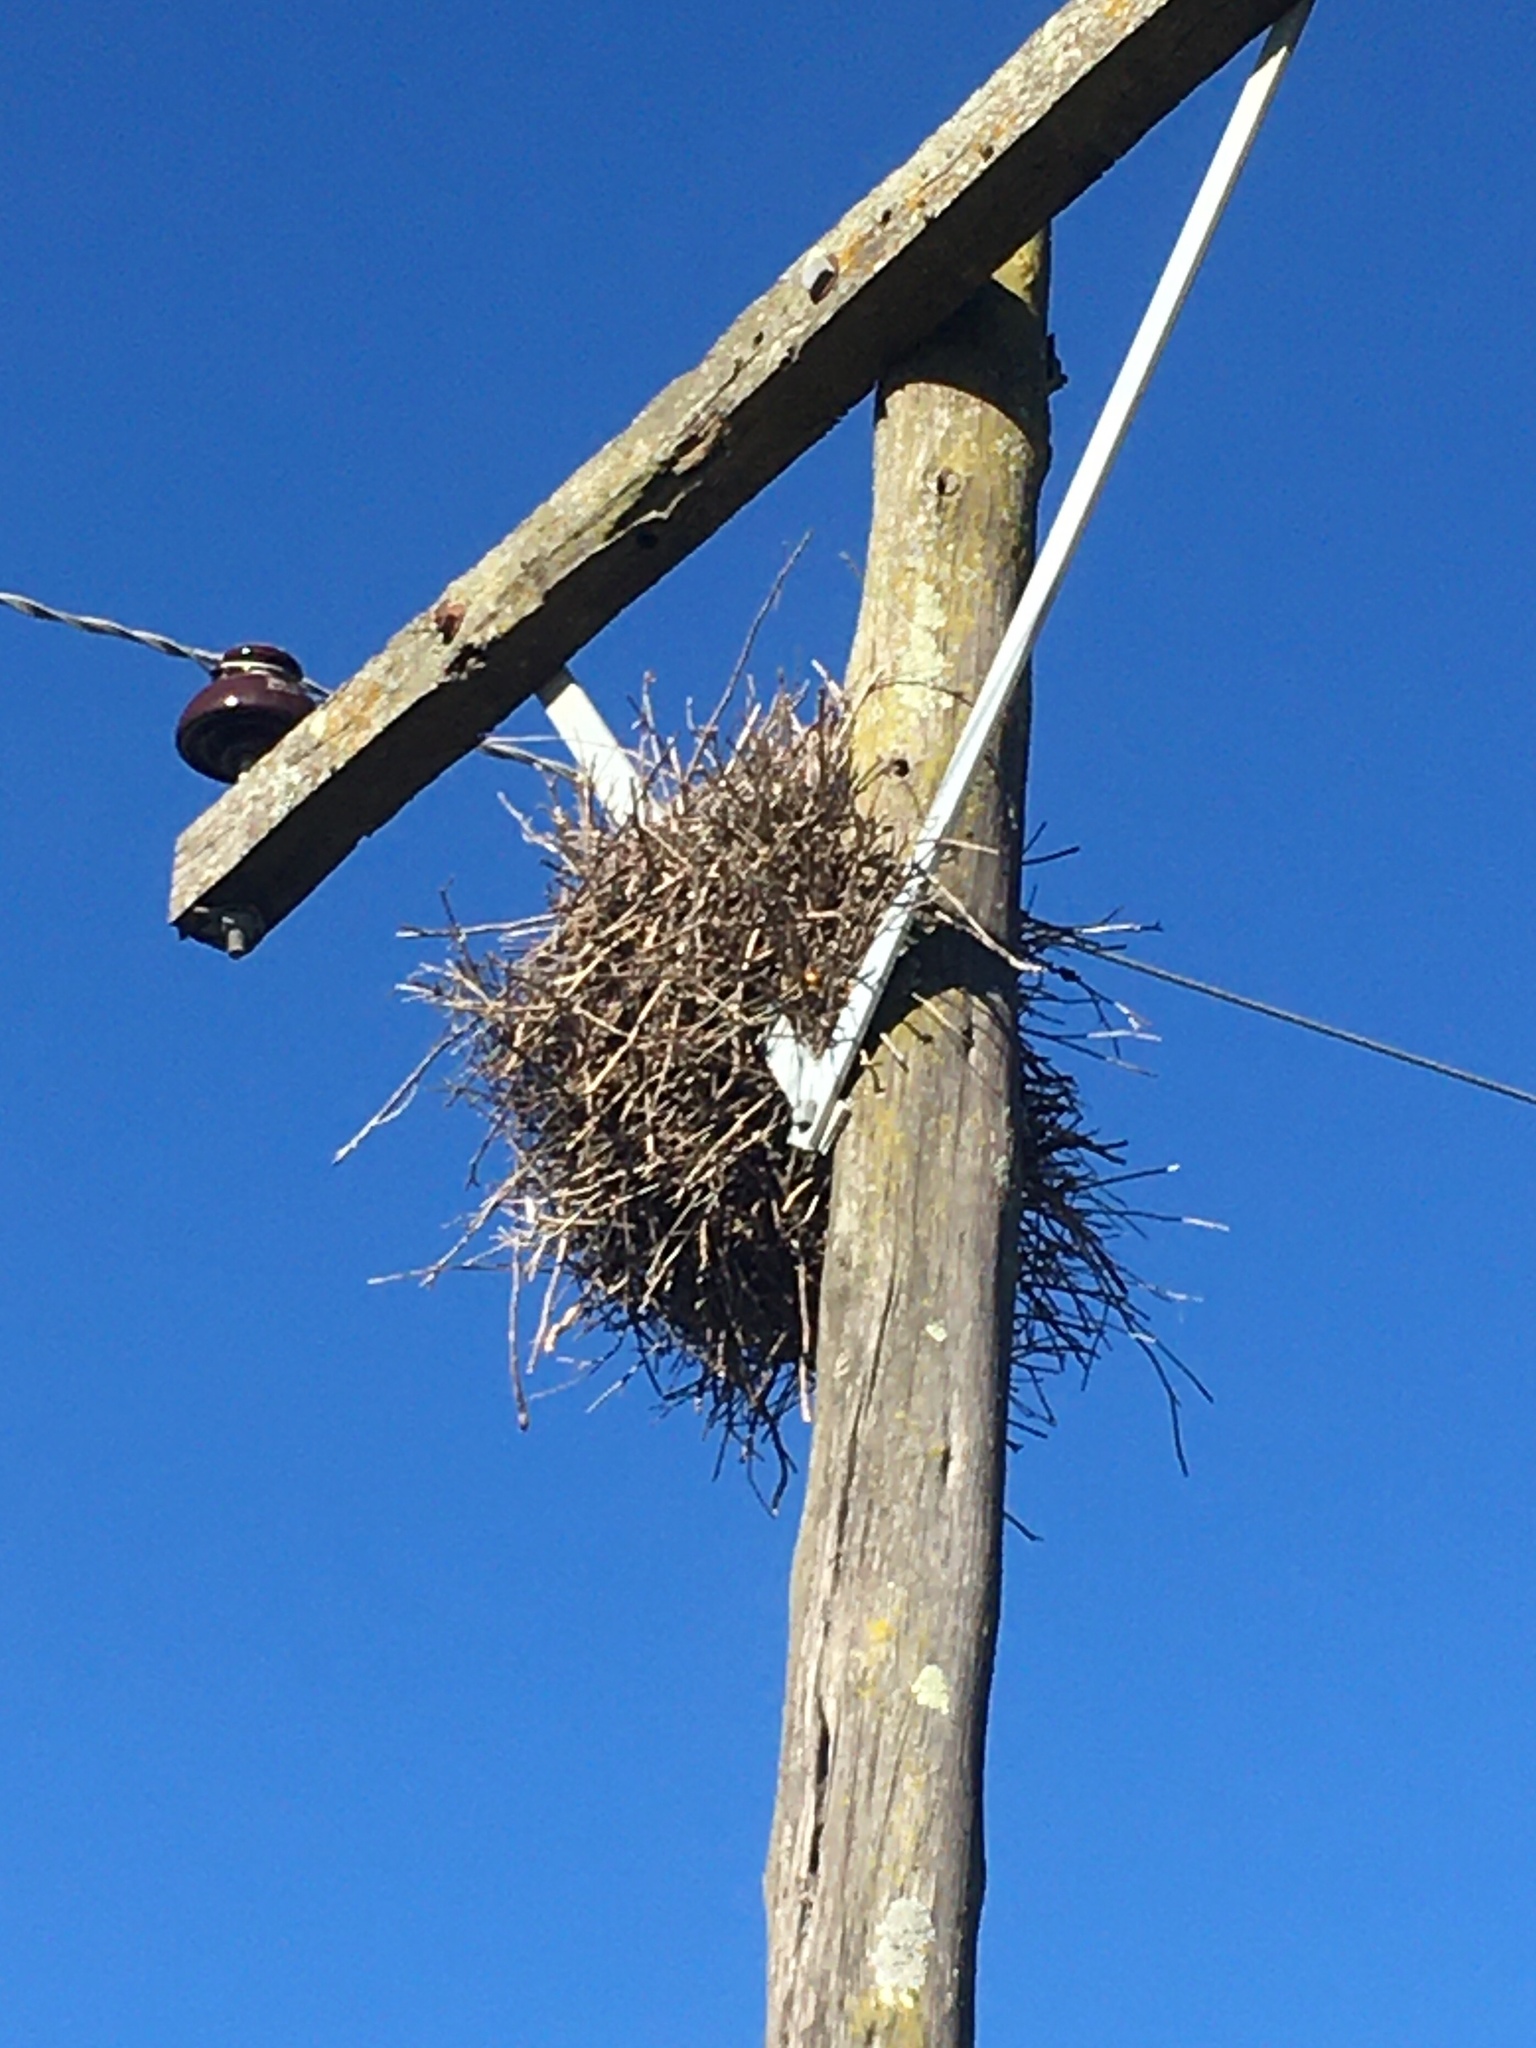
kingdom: Animalia
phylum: Chordata
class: Aves
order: Passeriformes
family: Furnariidae
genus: Anumbius
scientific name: Anumbius annumbi
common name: Firewood-gatherer
